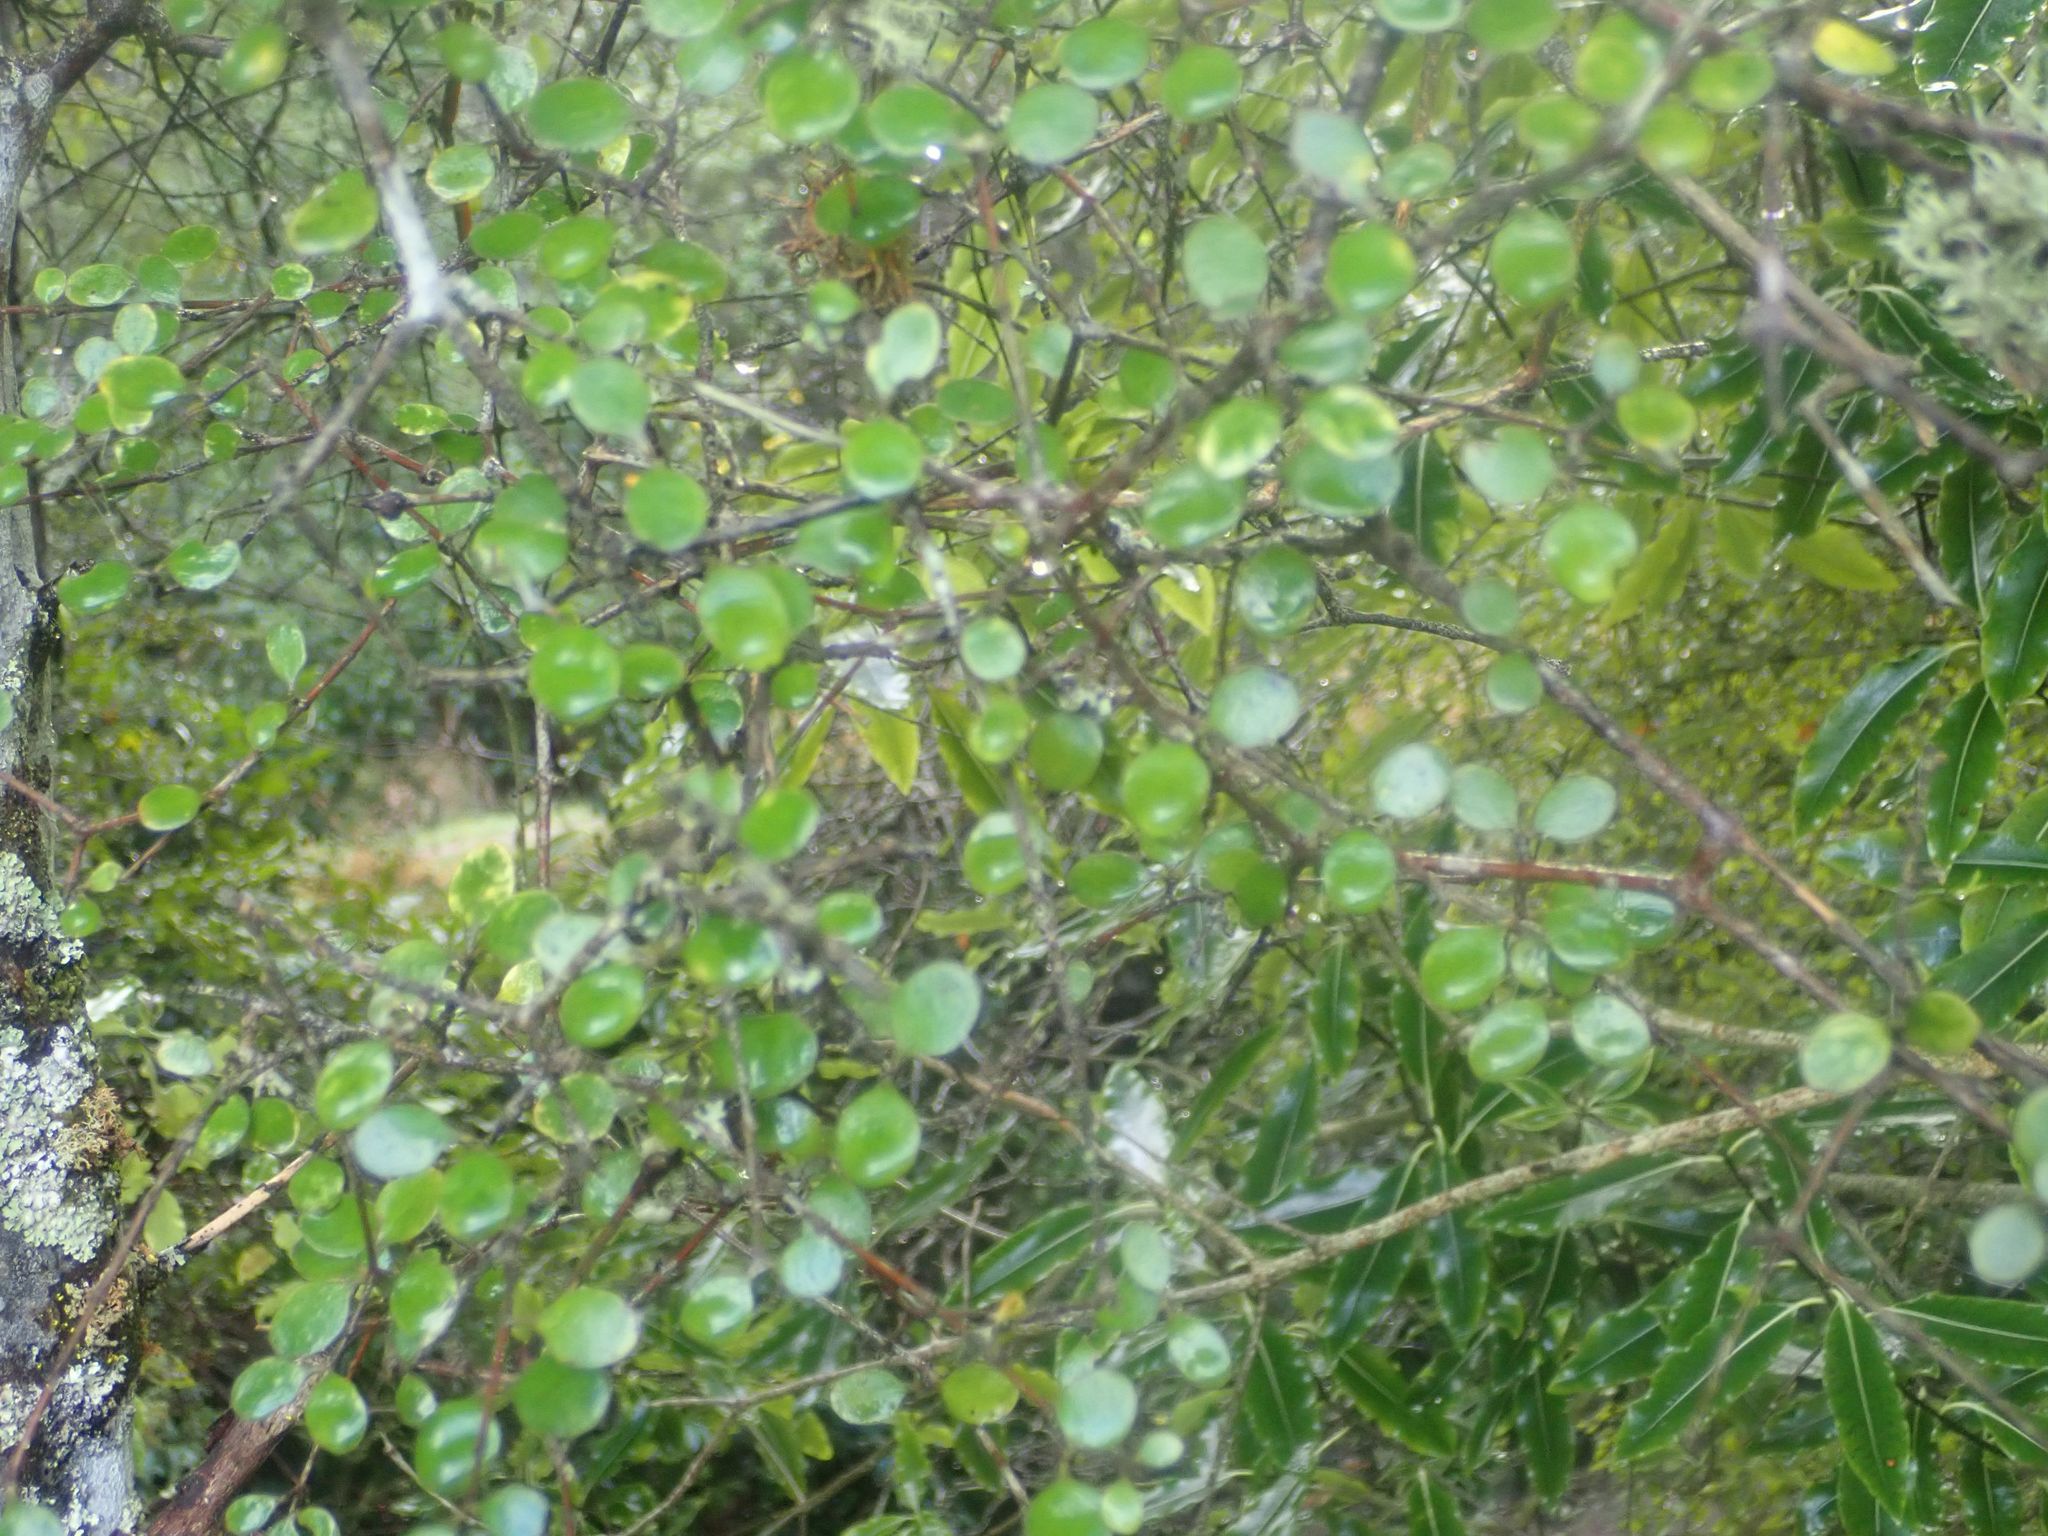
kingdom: Plantae
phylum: Tracheophyta
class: Magnoliopsida
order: Gentianales
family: Rubiaceae
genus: Coprosma
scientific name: Coprosma crassifolia
